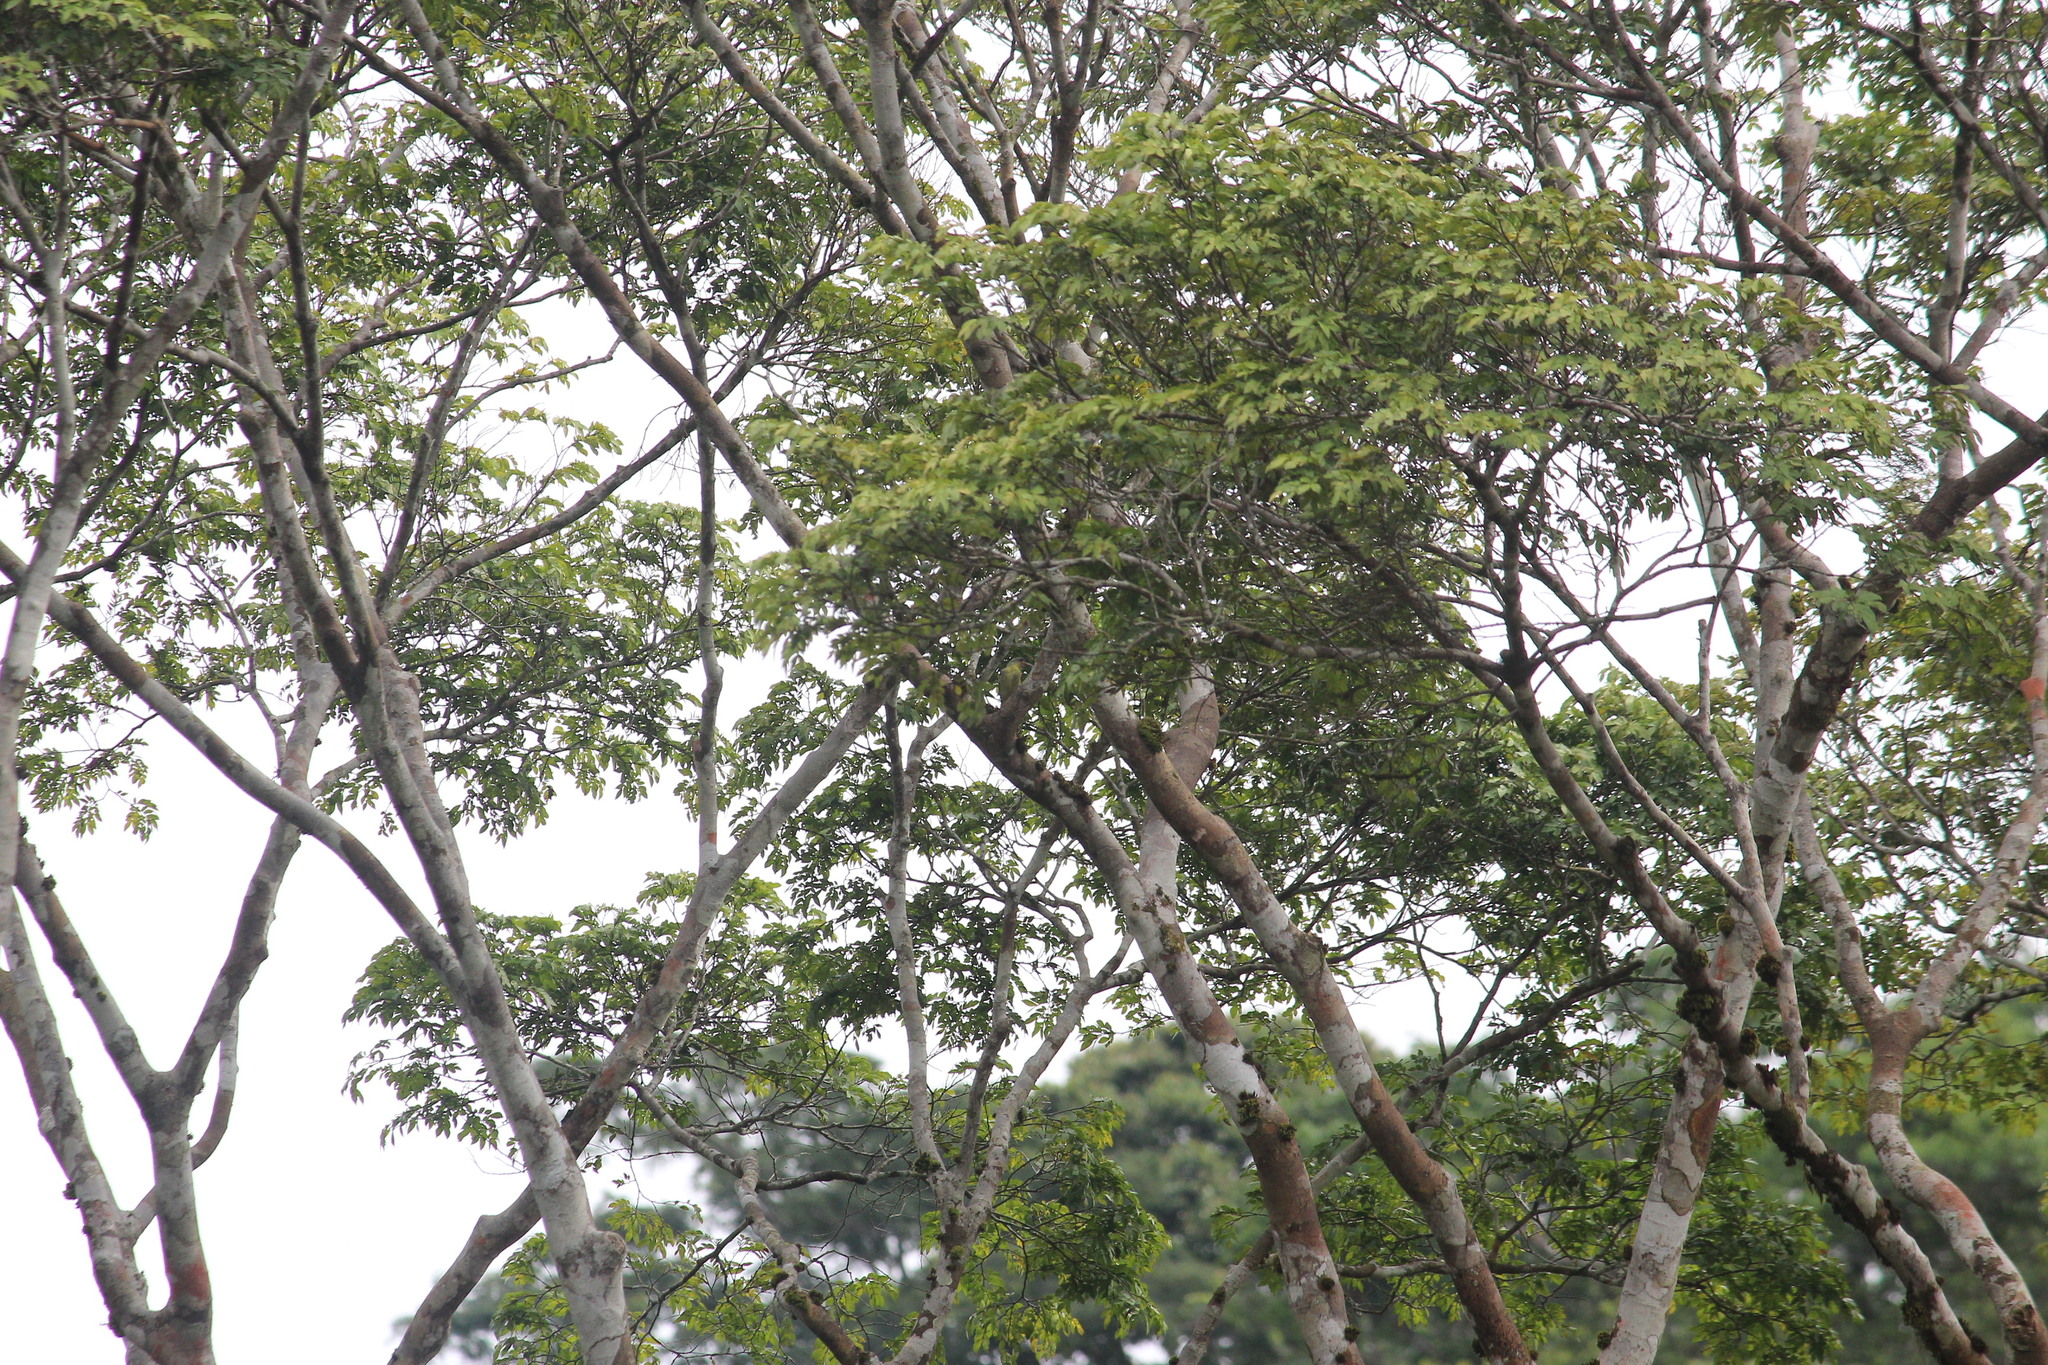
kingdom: Animalia
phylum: Chordata
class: Aves
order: Passeriformes
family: Nectariniidae
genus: Cyanomitra
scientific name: Cyanomitra olivacea
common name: Olive sunbird
